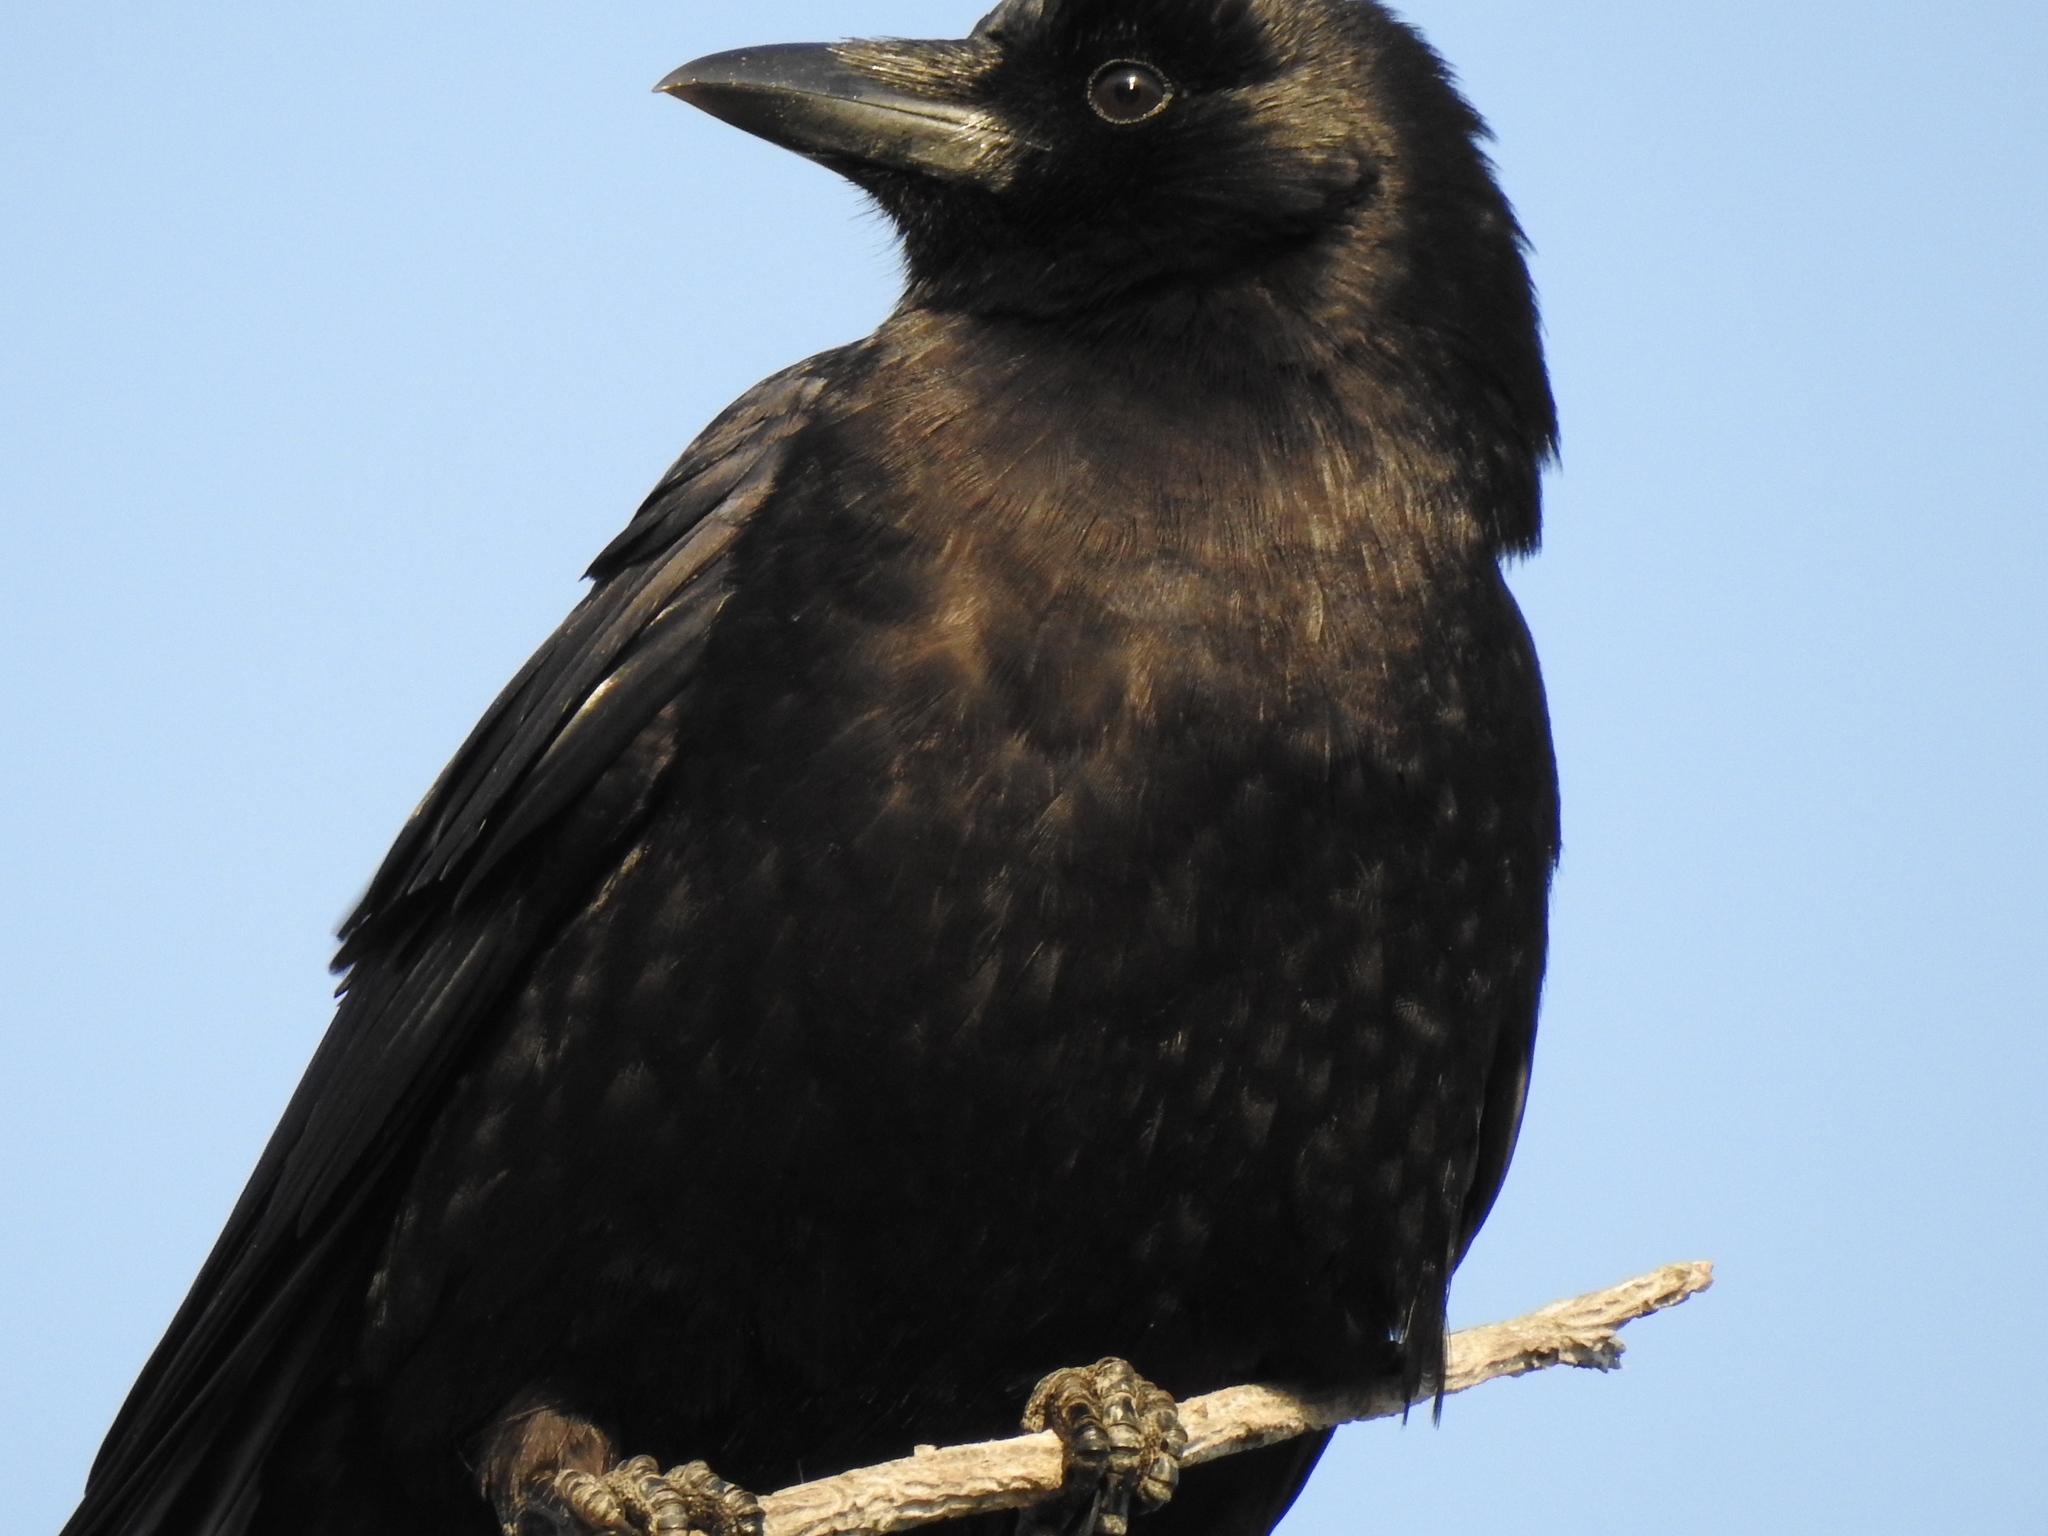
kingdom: Animalia
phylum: Chordata
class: Aves
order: Passeriformes
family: Corvidae
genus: Corvus
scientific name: Corvus brachyrhynchos
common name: American crow
